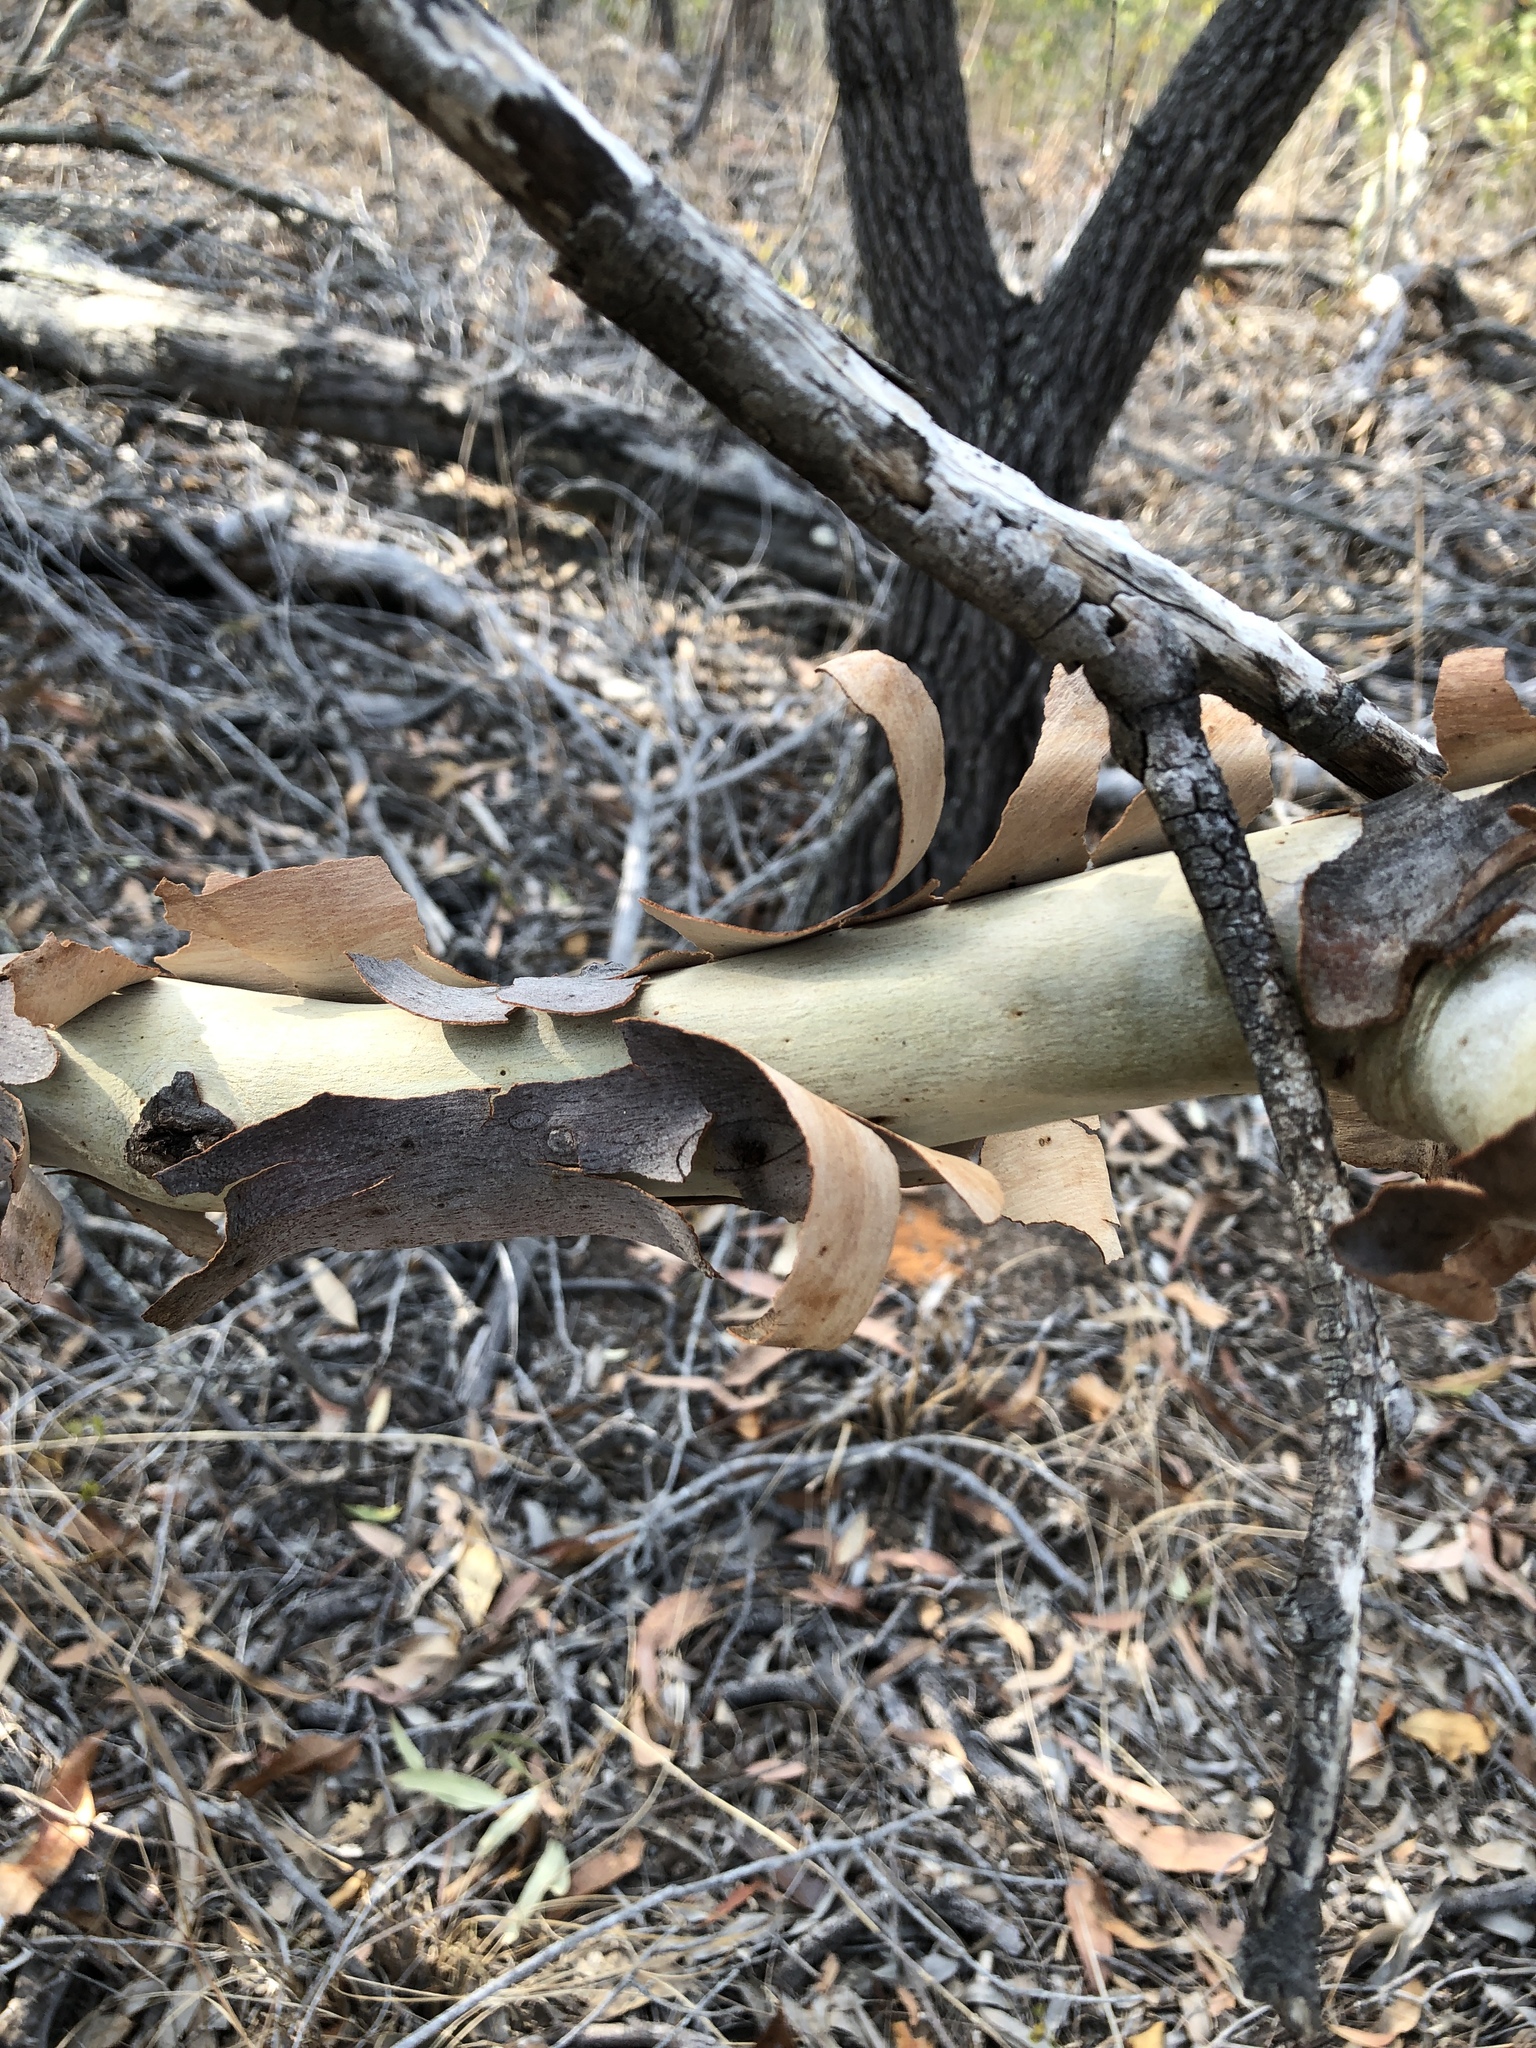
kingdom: Plantae
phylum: Tracheophyta
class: Magnoliopsida
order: Myrtales
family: Myrtaceae
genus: Corymbia
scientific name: Corymbia citriodora
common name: Lemonscented gum
